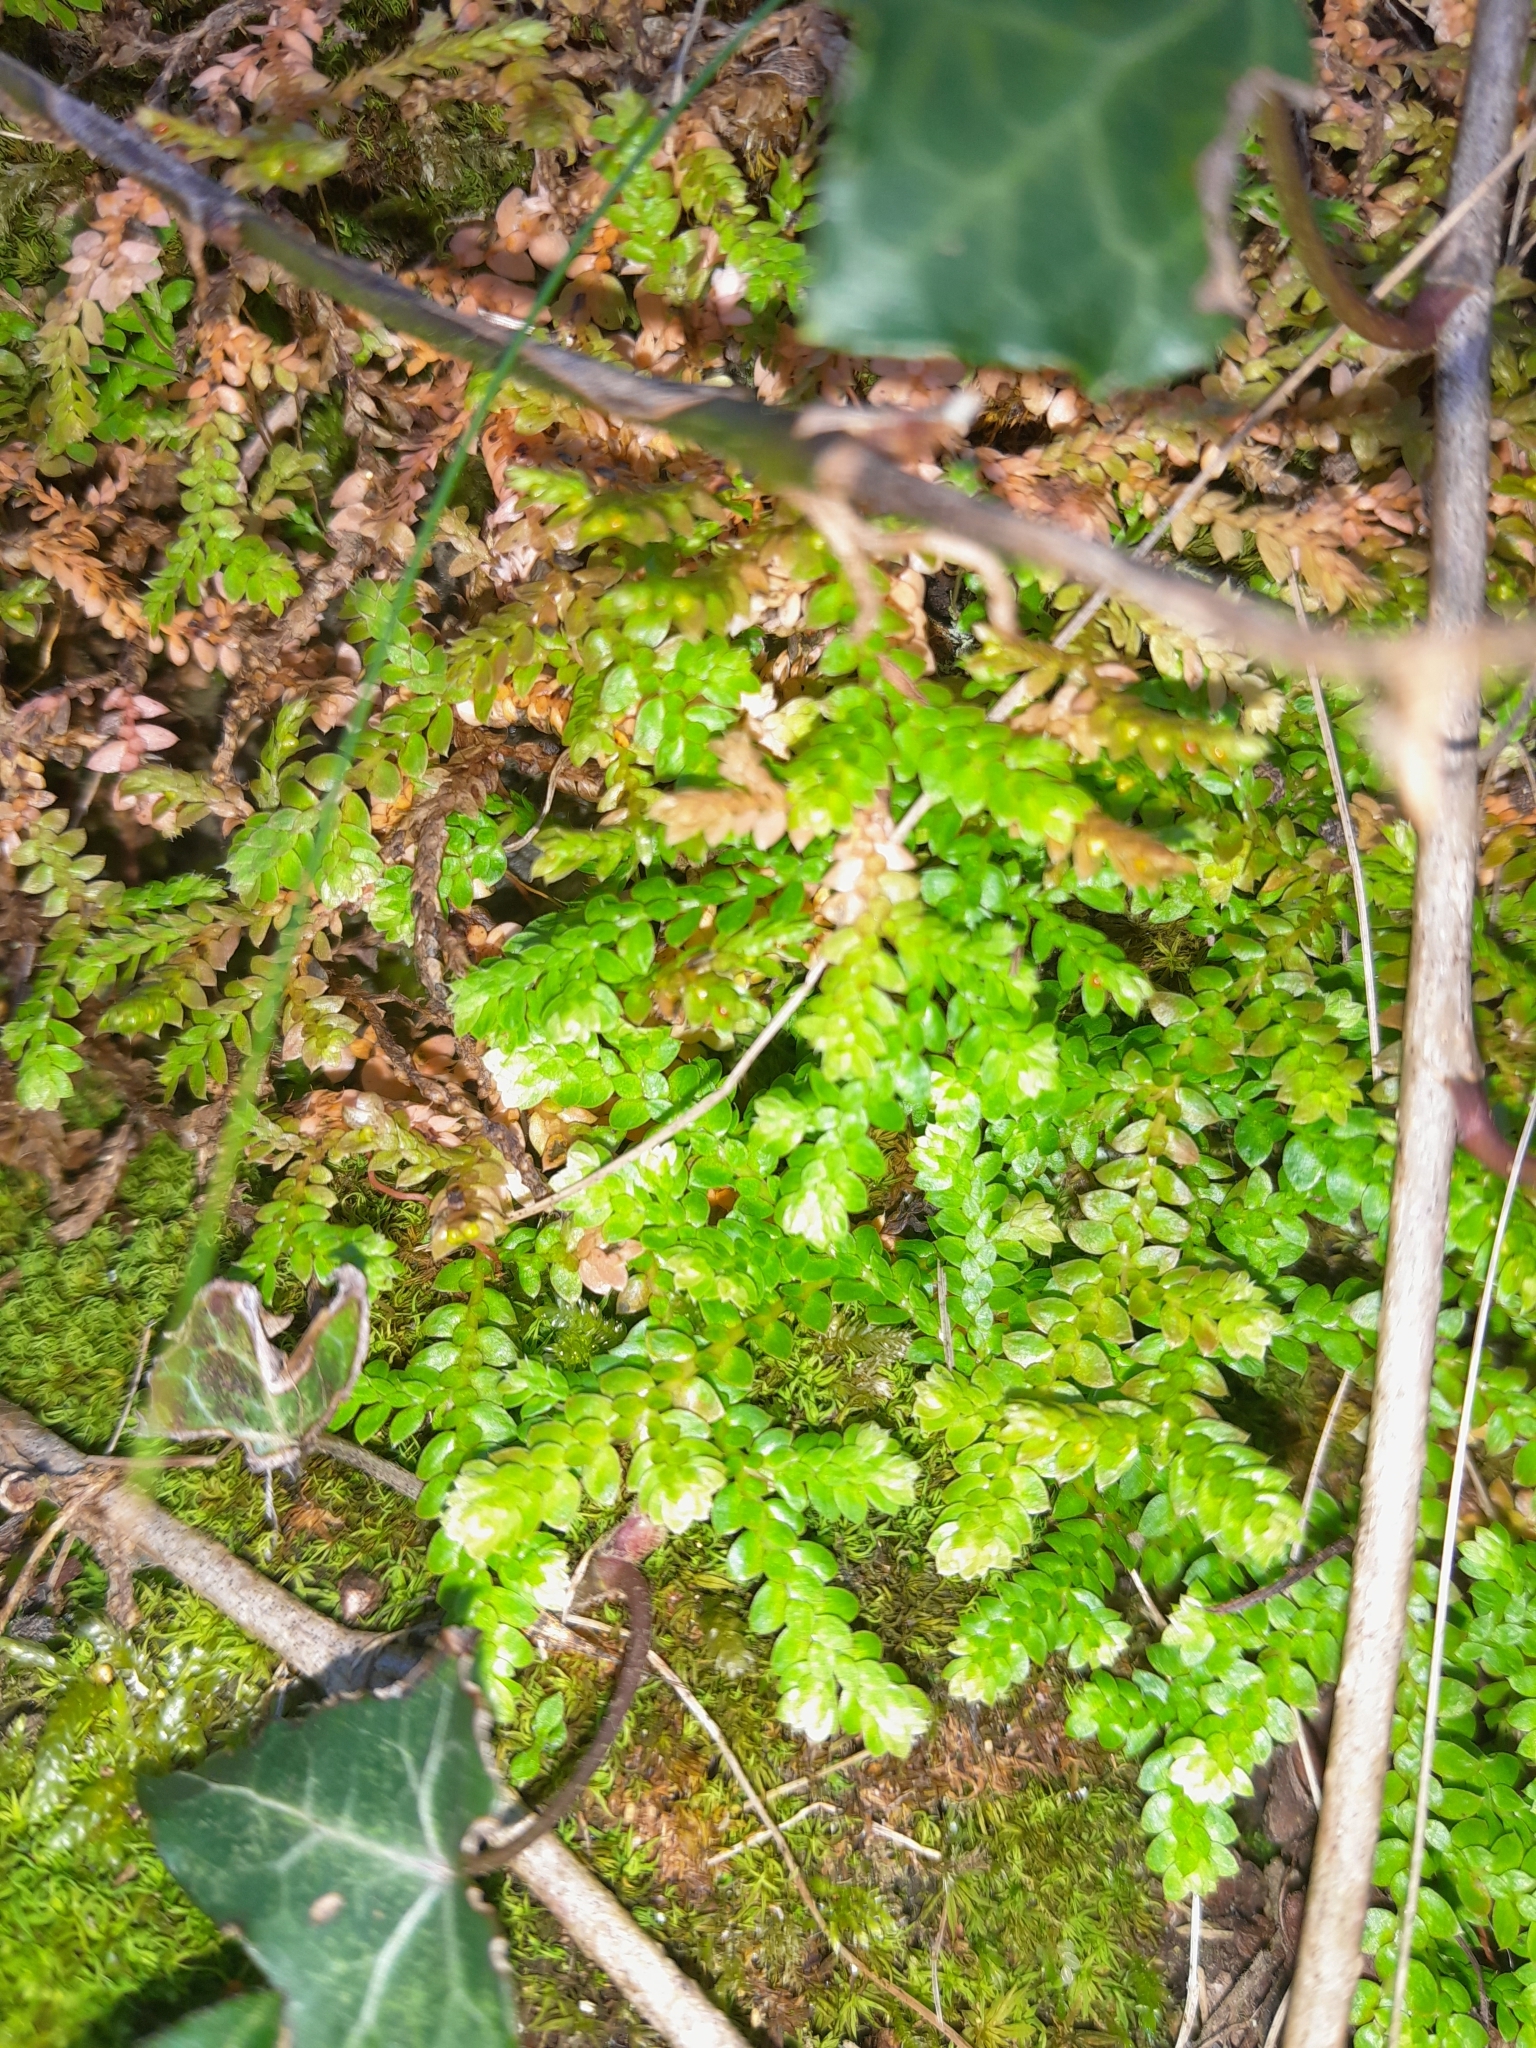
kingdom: Plantae
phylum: Tracheophyta
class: Lycopodiopsida
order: Selaginellales
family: Selaginellaceae
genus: Selaginella
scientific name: Selaginella denticulata
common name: Toothed-leaved clubmoss
